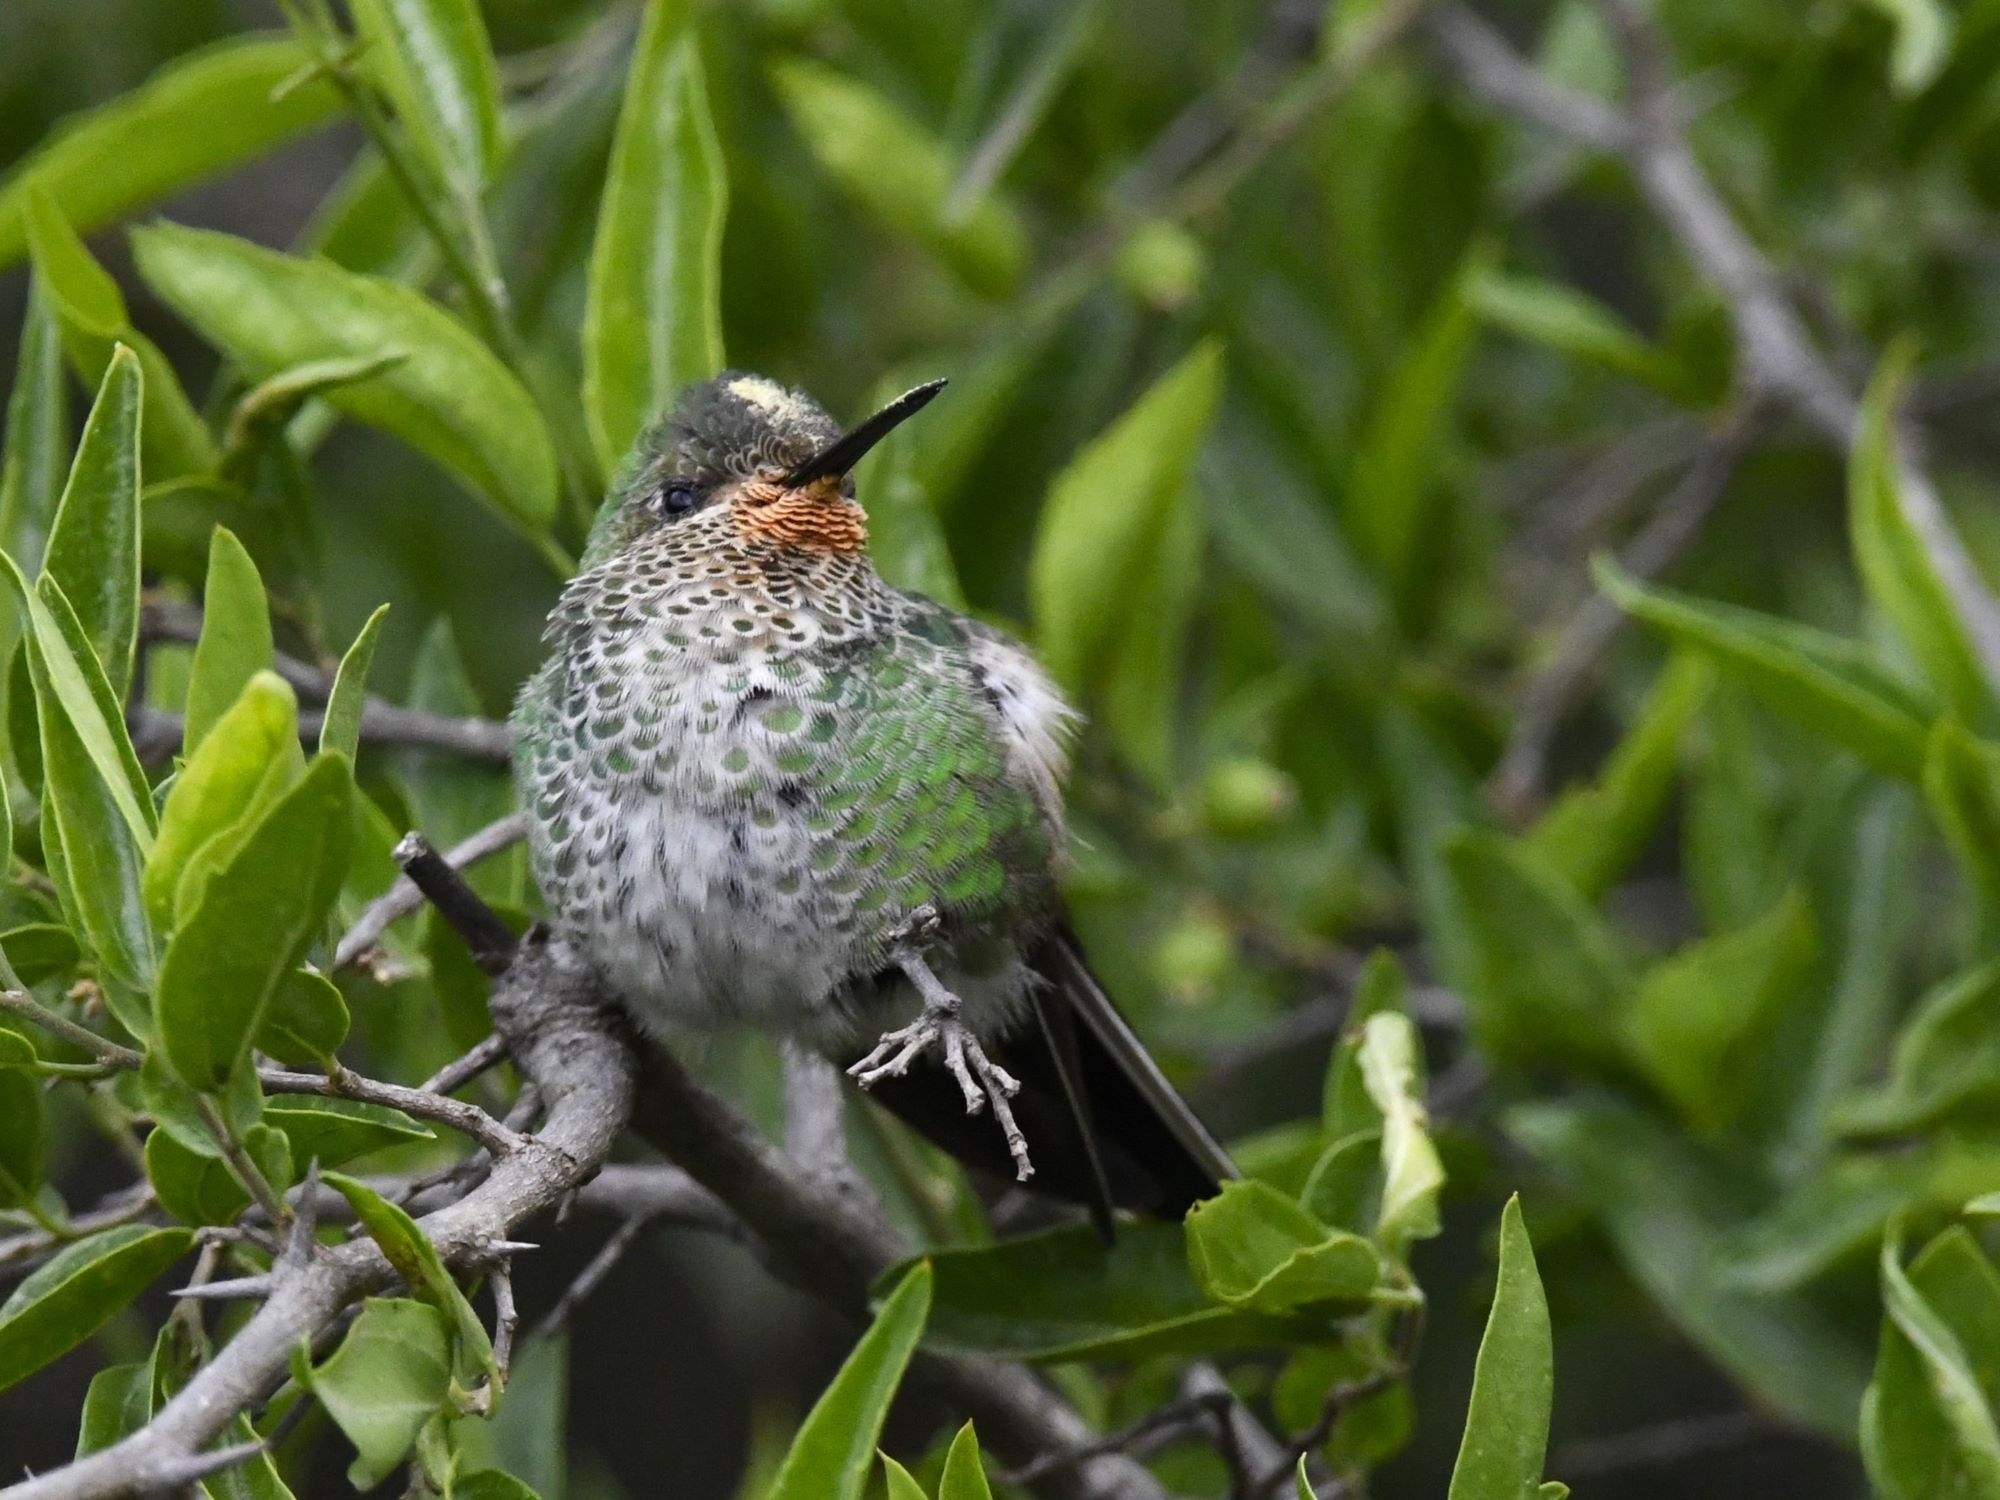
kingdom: Animalia
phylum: Chordata
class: Aves
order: Apodiformes
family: Trochilidae
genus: Sappho
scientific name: Sappho sparganurus
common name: Red-tailed comet
